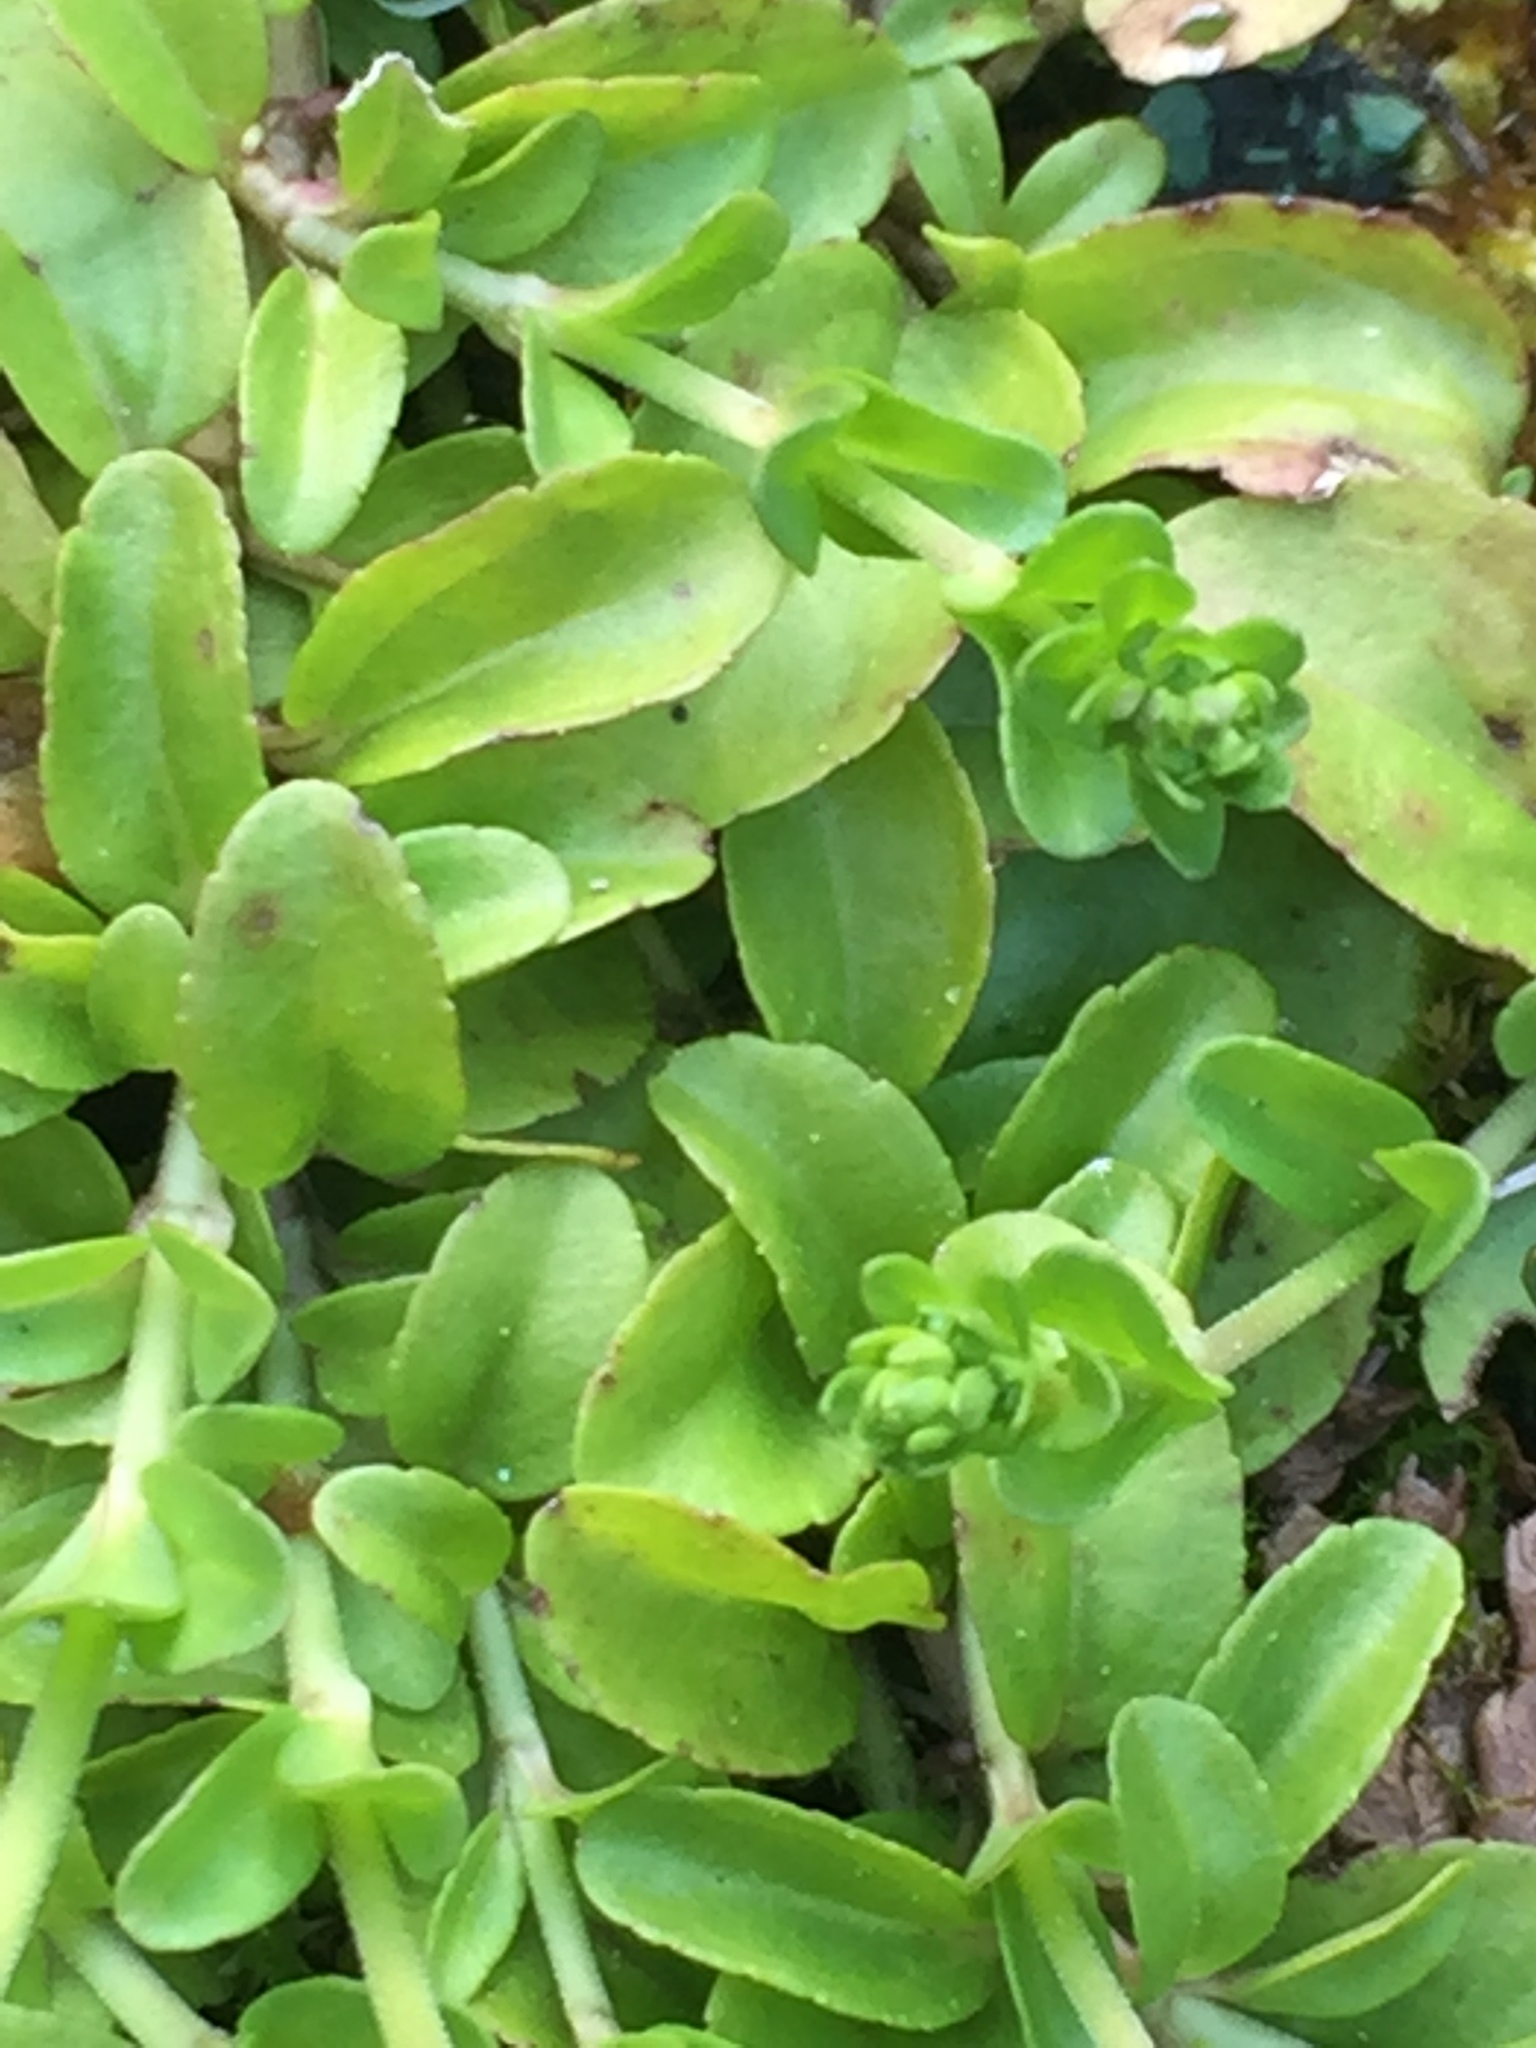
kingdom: Plantae
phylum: Tracheophyta
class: Magnoliopsida
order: Lamiales
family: Plantaginaceae
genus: Veronica
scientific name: Veronica serpyllifolia
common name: Thyme-leaved speedwell
